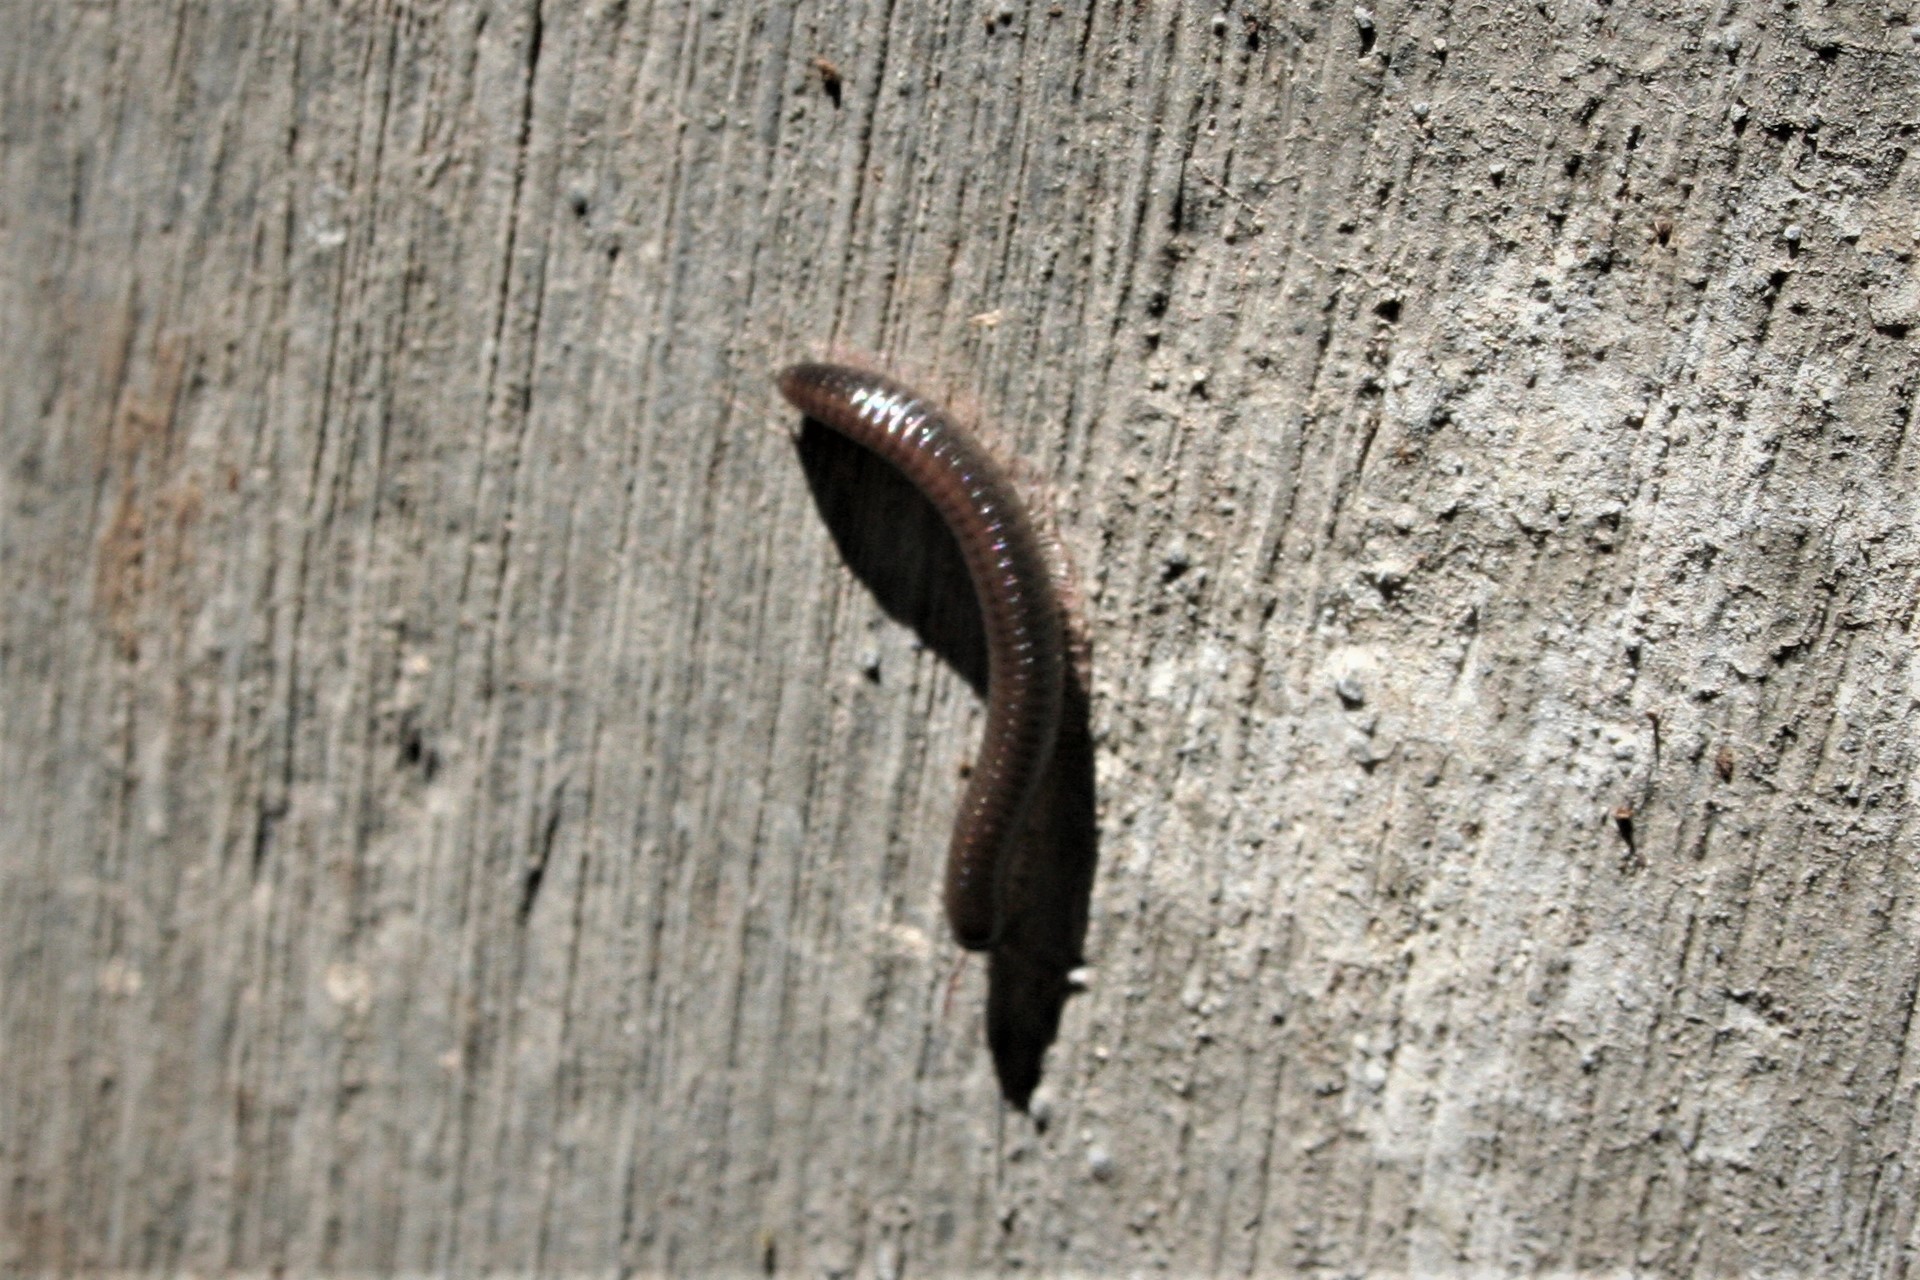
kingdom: Animalia
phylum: Arthropoda
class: Diplopoda
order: Julida
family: Julidae
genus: Ommatoiulus
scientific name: Ommatoiulus moreleti
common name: Portuguese millipede
